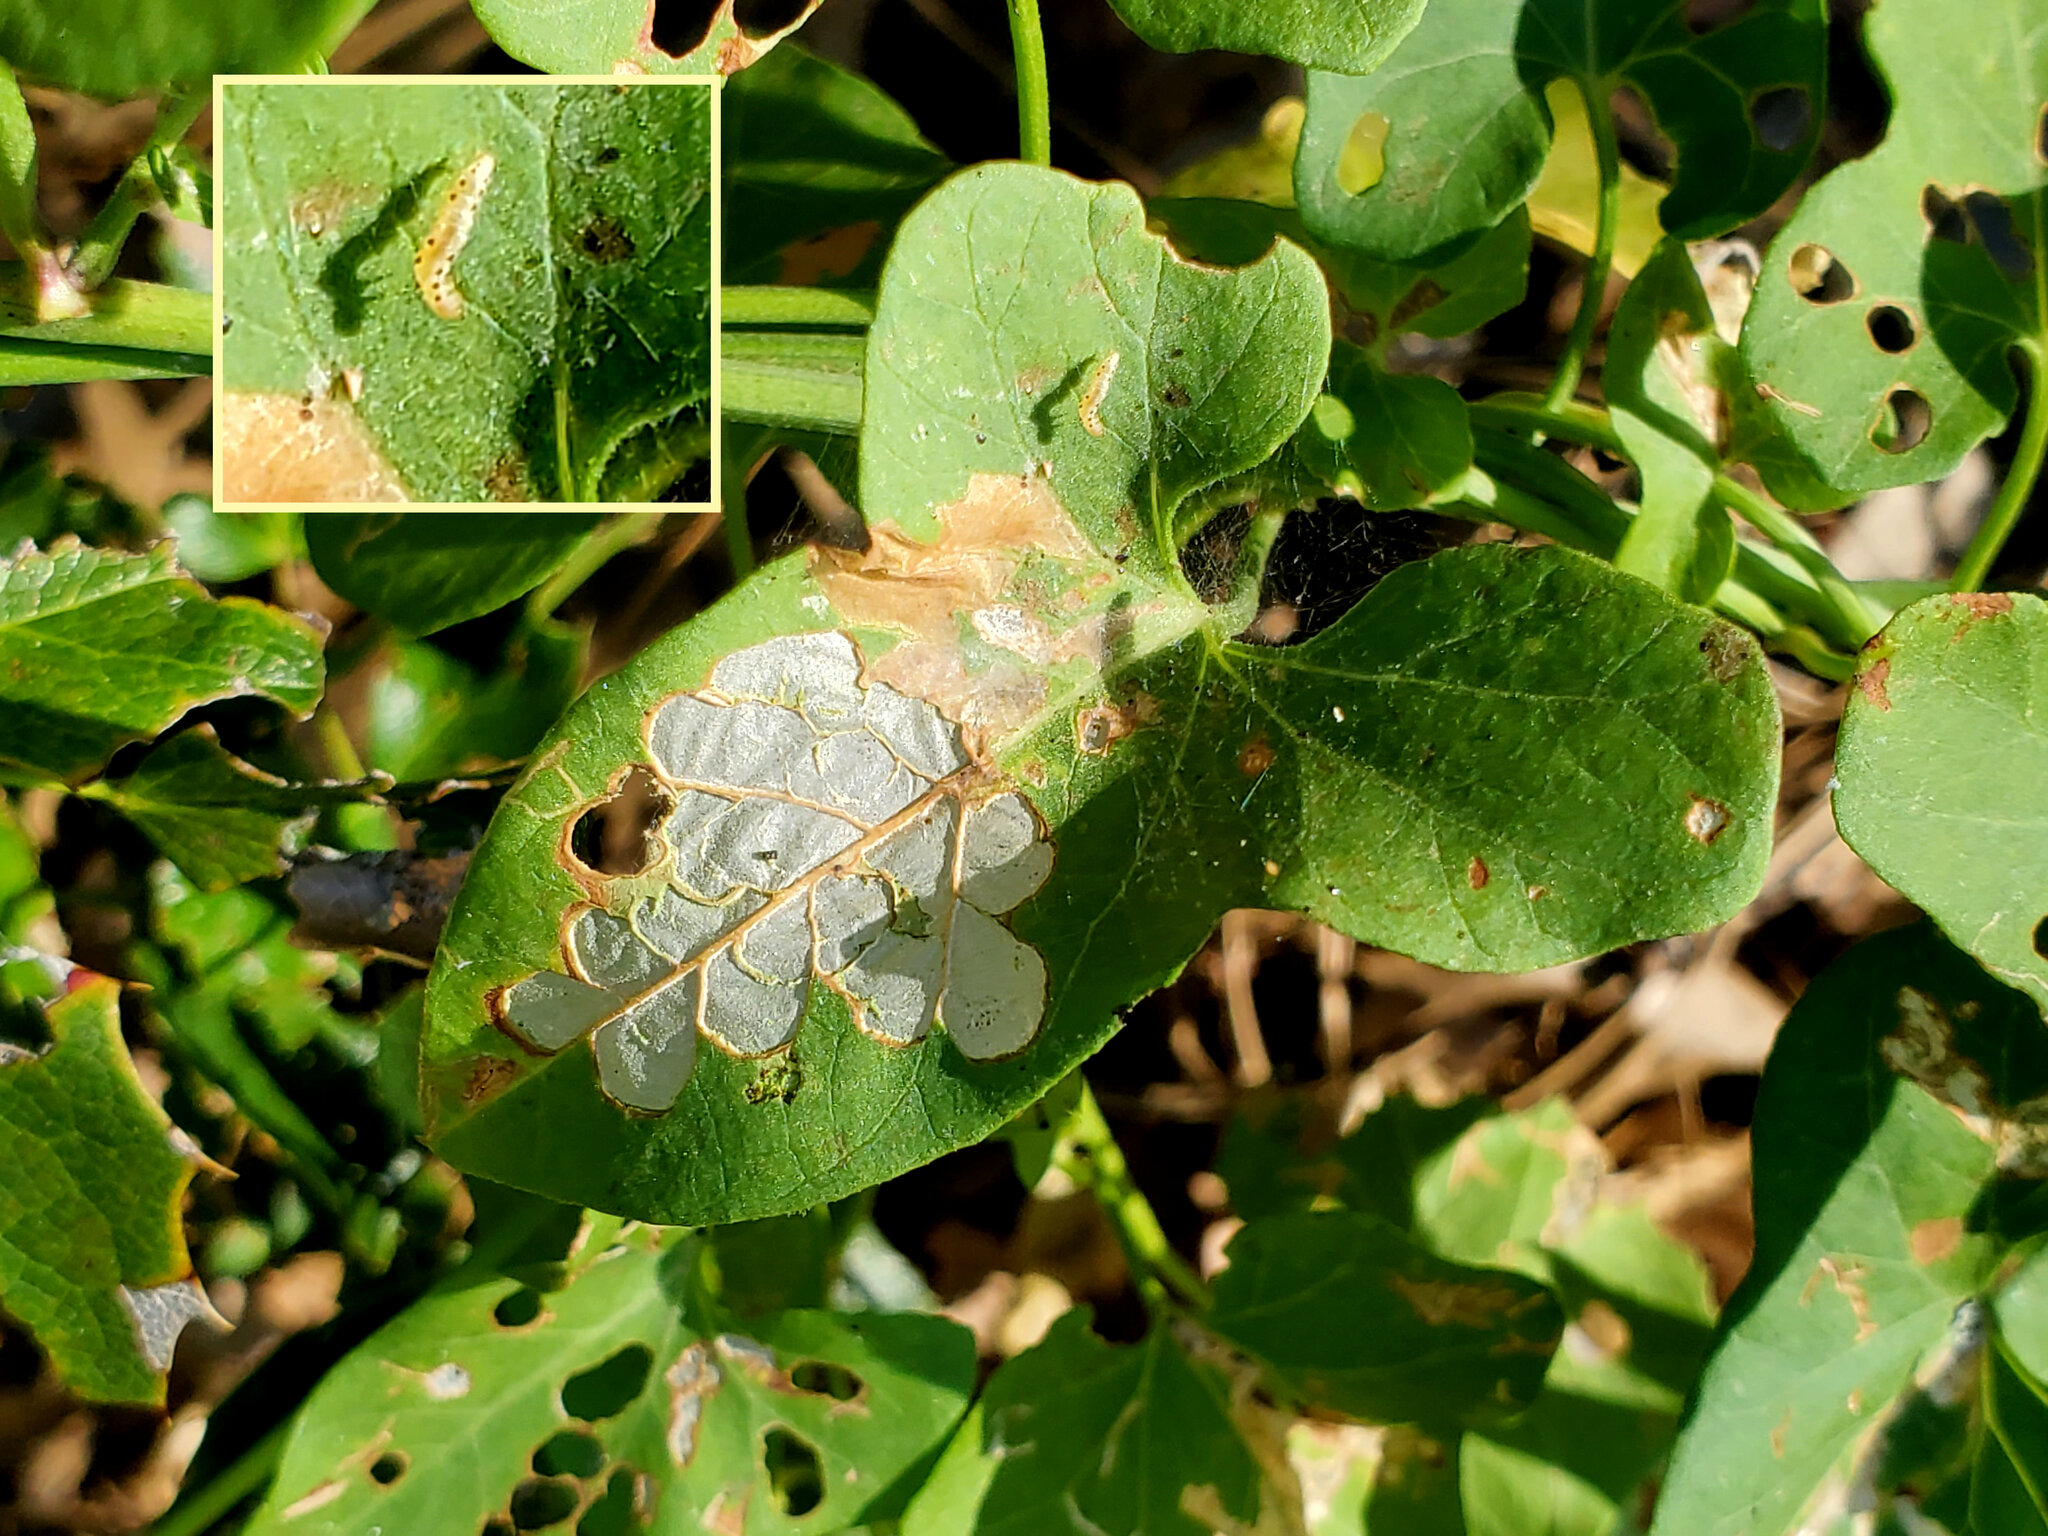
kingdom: Animalia
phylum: Arthropoda
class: Insecta
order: Lepidoptera
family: Bedelliidae
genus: Bedellia
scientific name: Bedellia somnulentella
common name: Morning-glory leafminer moth
